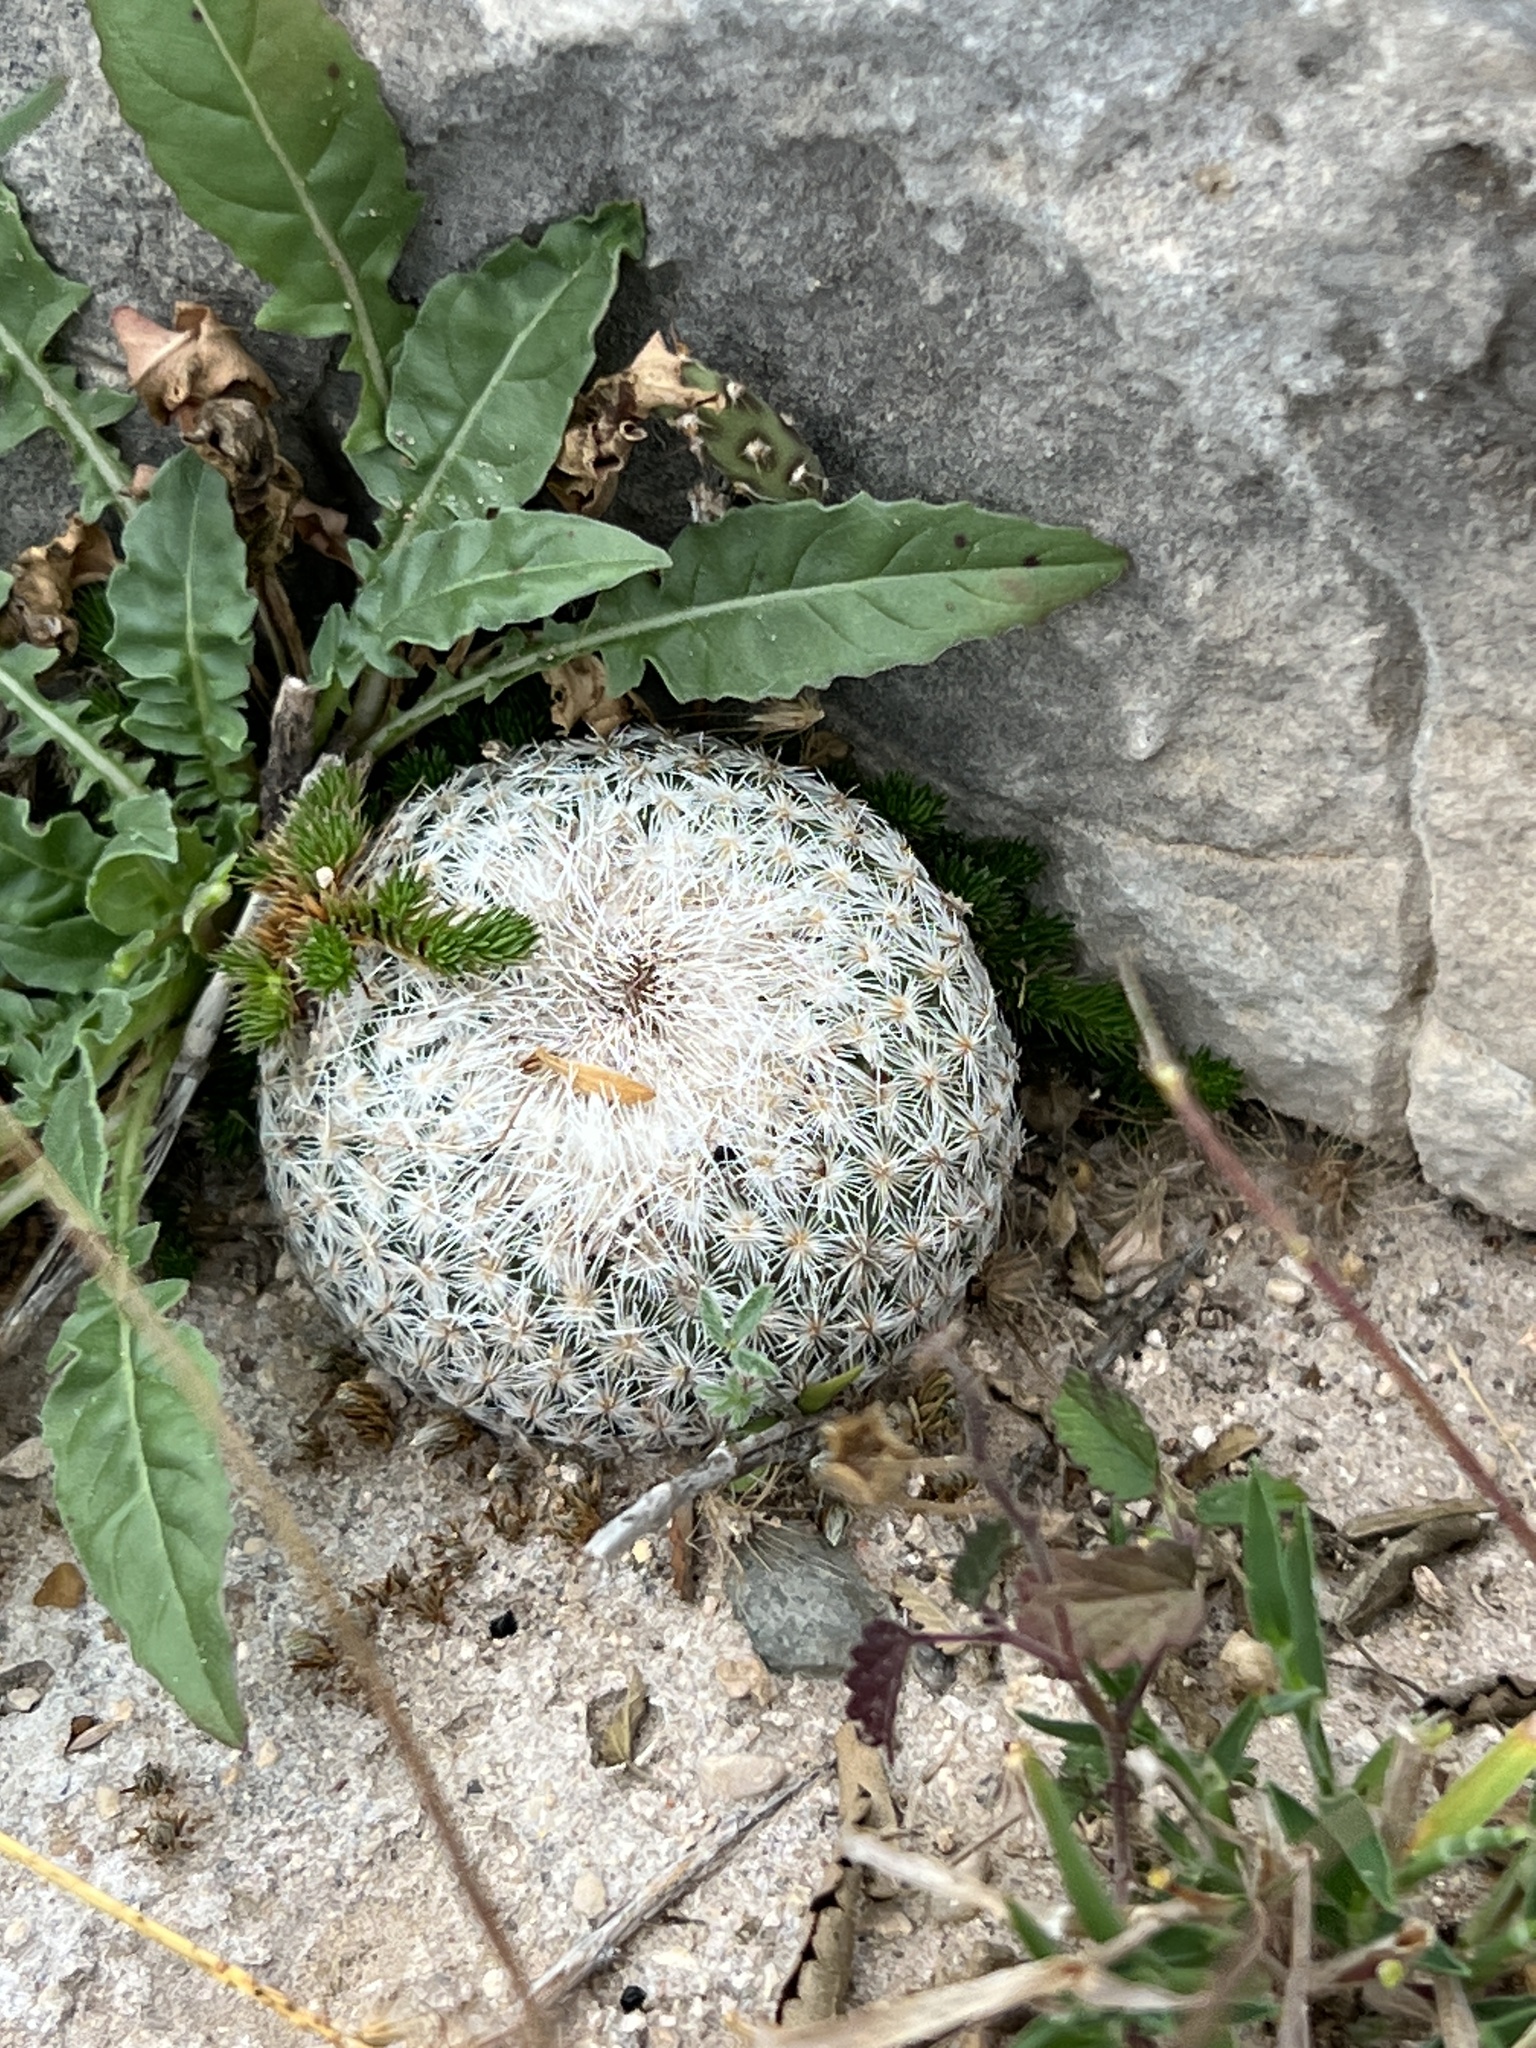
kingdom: Plantae
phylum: Tracheophyta
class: Magnoliopsida
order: Caryophyllales
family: Cactaceae
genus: Epithelantha
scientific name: Epithelantha micromeris
